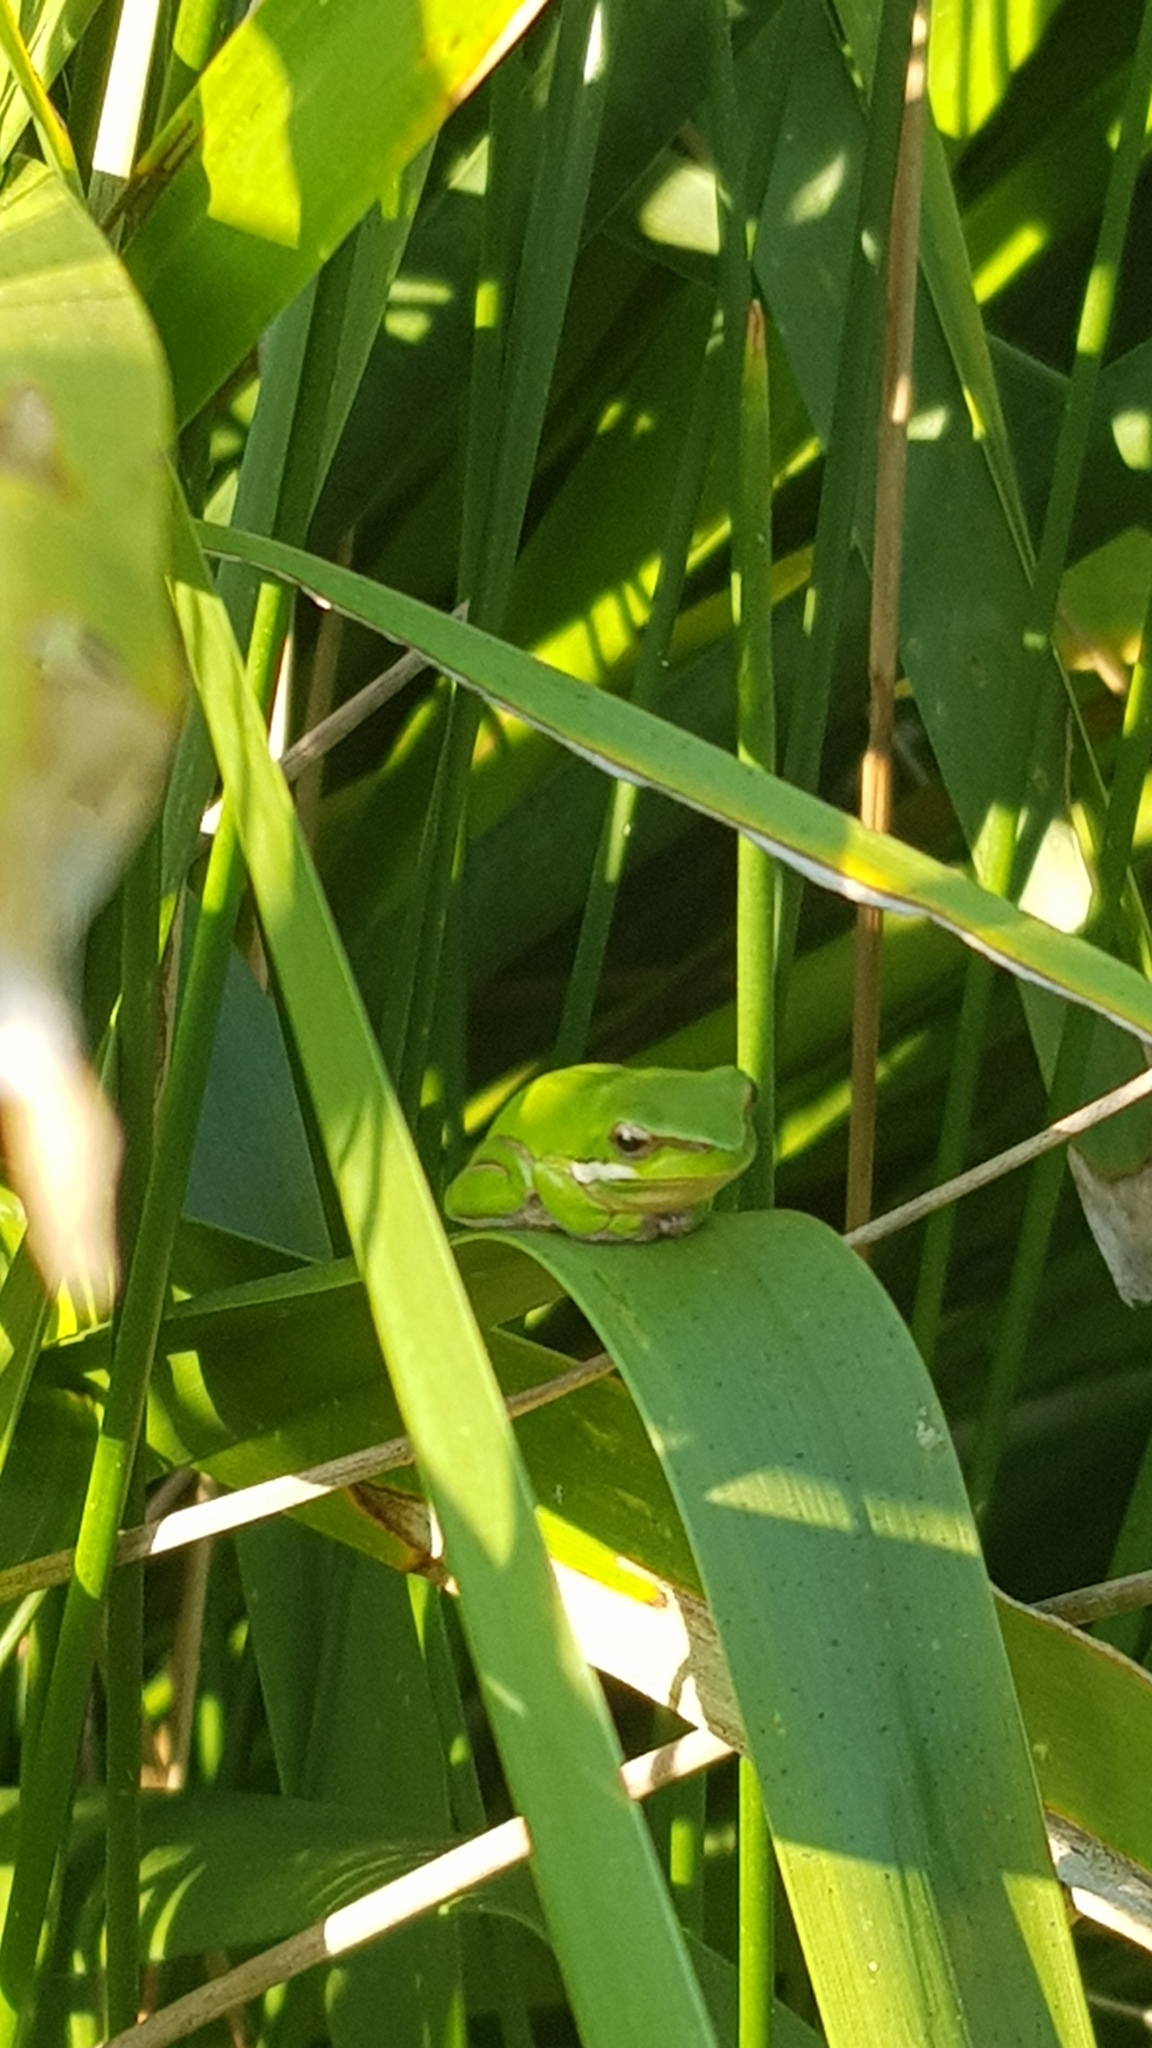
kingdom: Animalia
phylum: Chordata
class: Amphibia
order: Anura
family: Pelodryadidae
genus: Litoria
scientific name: Litoria fallax
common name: Eastern dwarf treefrog
